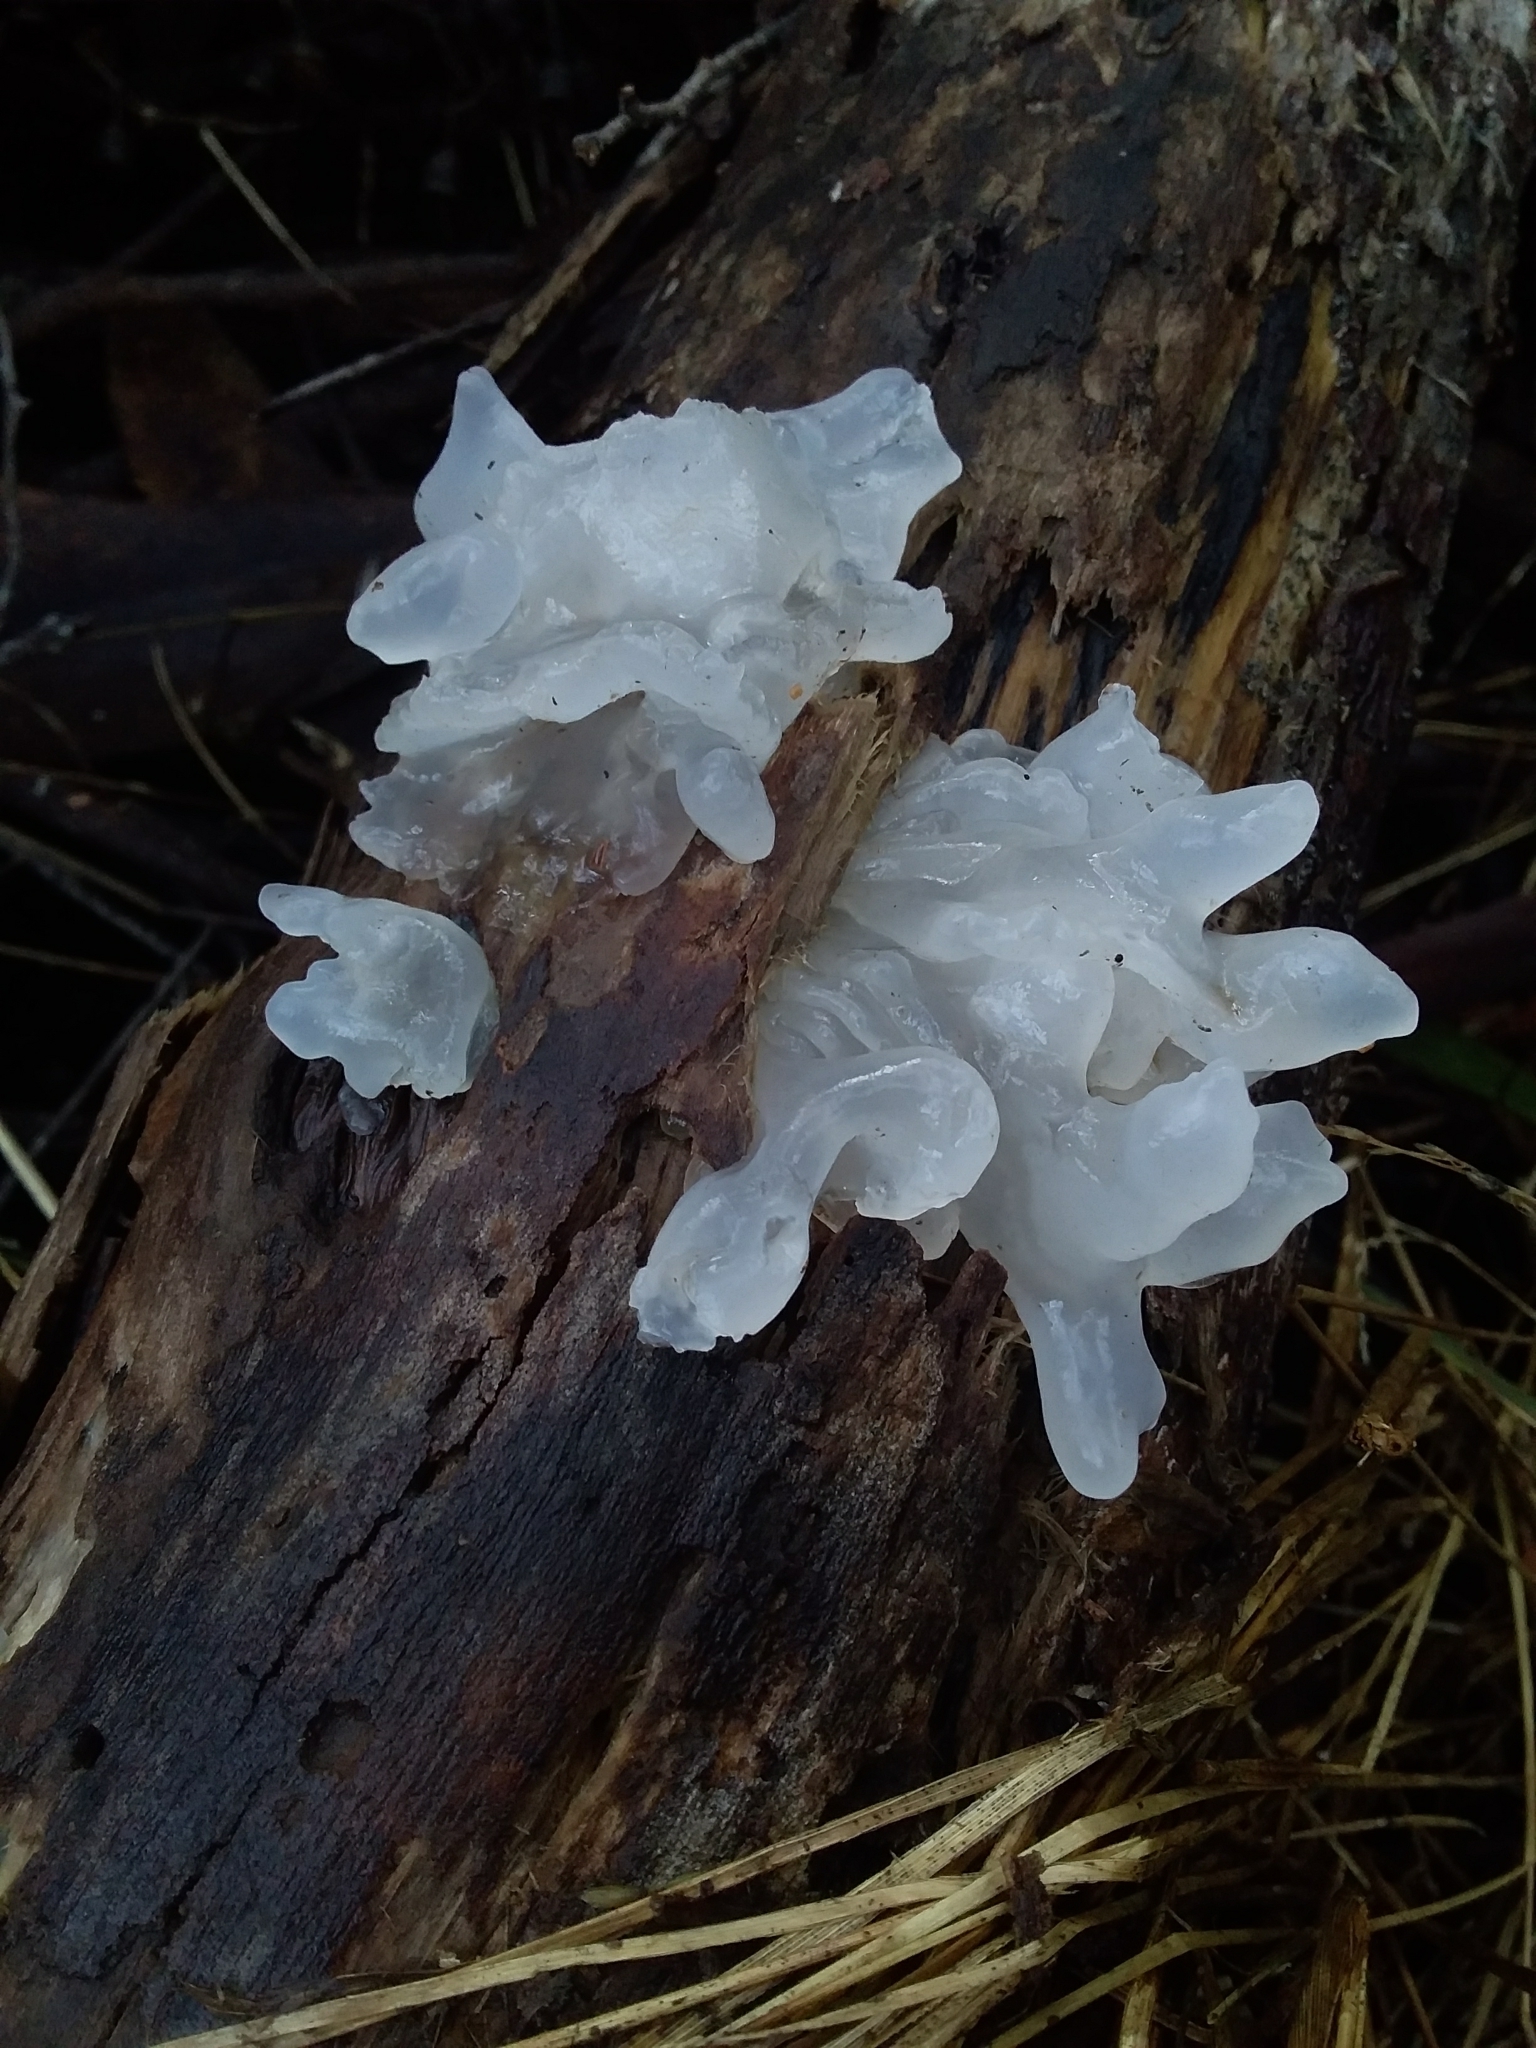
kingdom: Fungi
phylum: Basidiomycota
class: Tremellomycetes
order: Tremellales
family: Tremellaceae
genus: Tremella
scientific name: Tremella fuciformis
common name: Snow fungus
